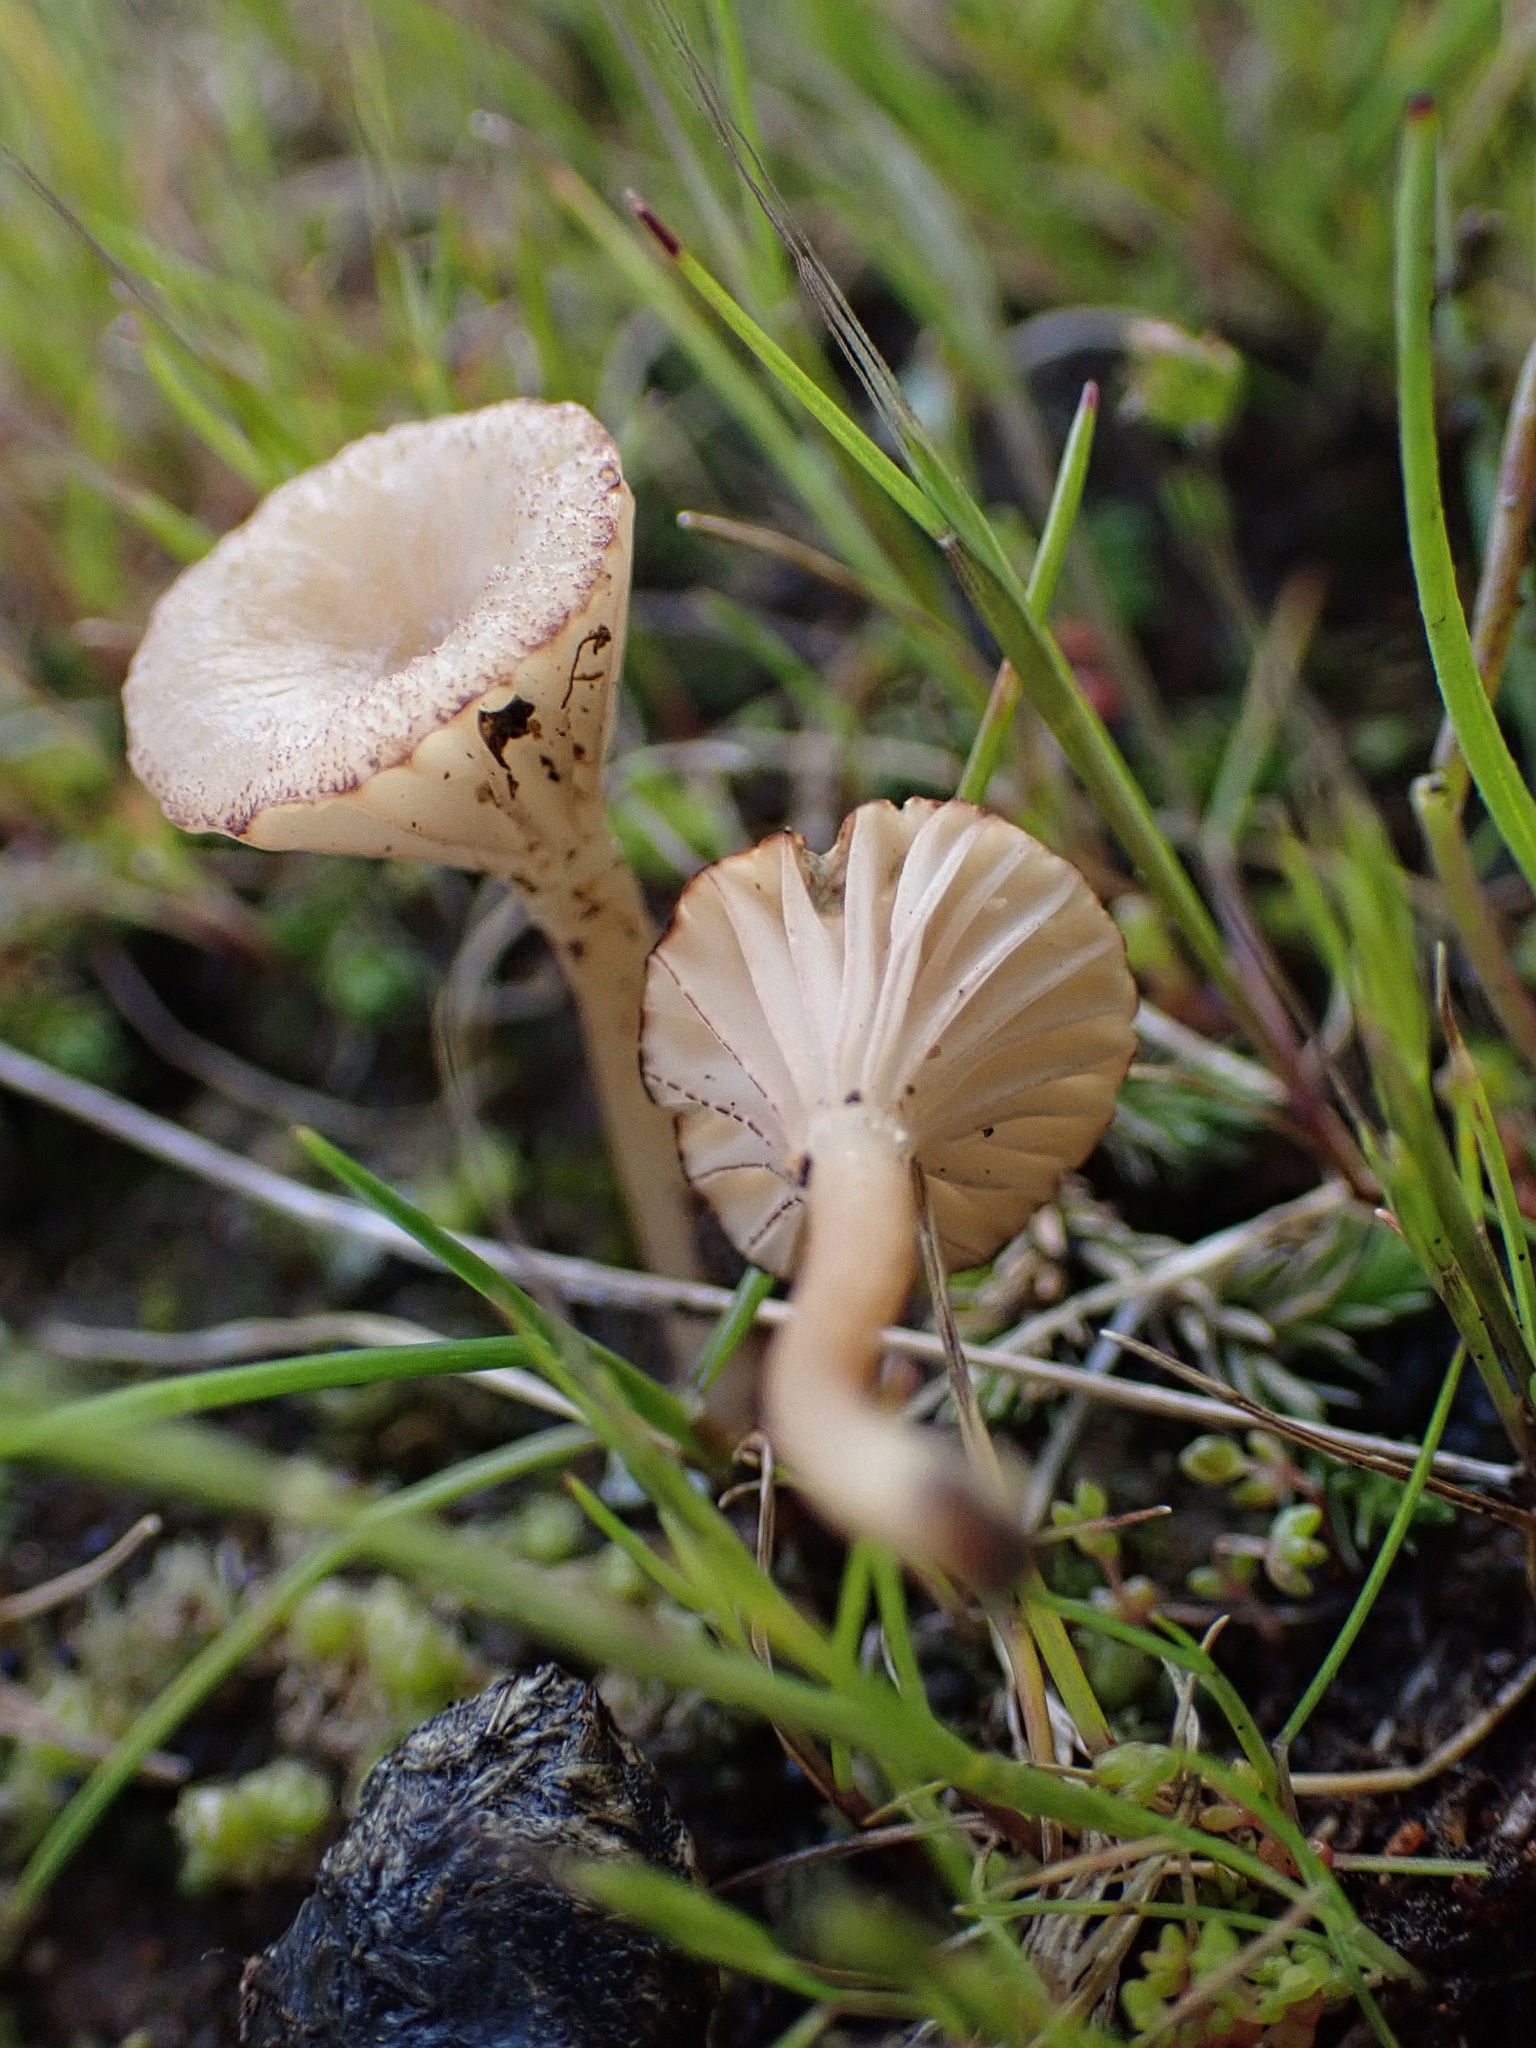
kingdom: Fungi
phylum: Basidiomycota
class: Agaricomycetes
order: Hymenochaetales
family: Rickenellaceae
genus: Contumyces
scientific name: Contumyces rosellus
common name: Rosy navel
